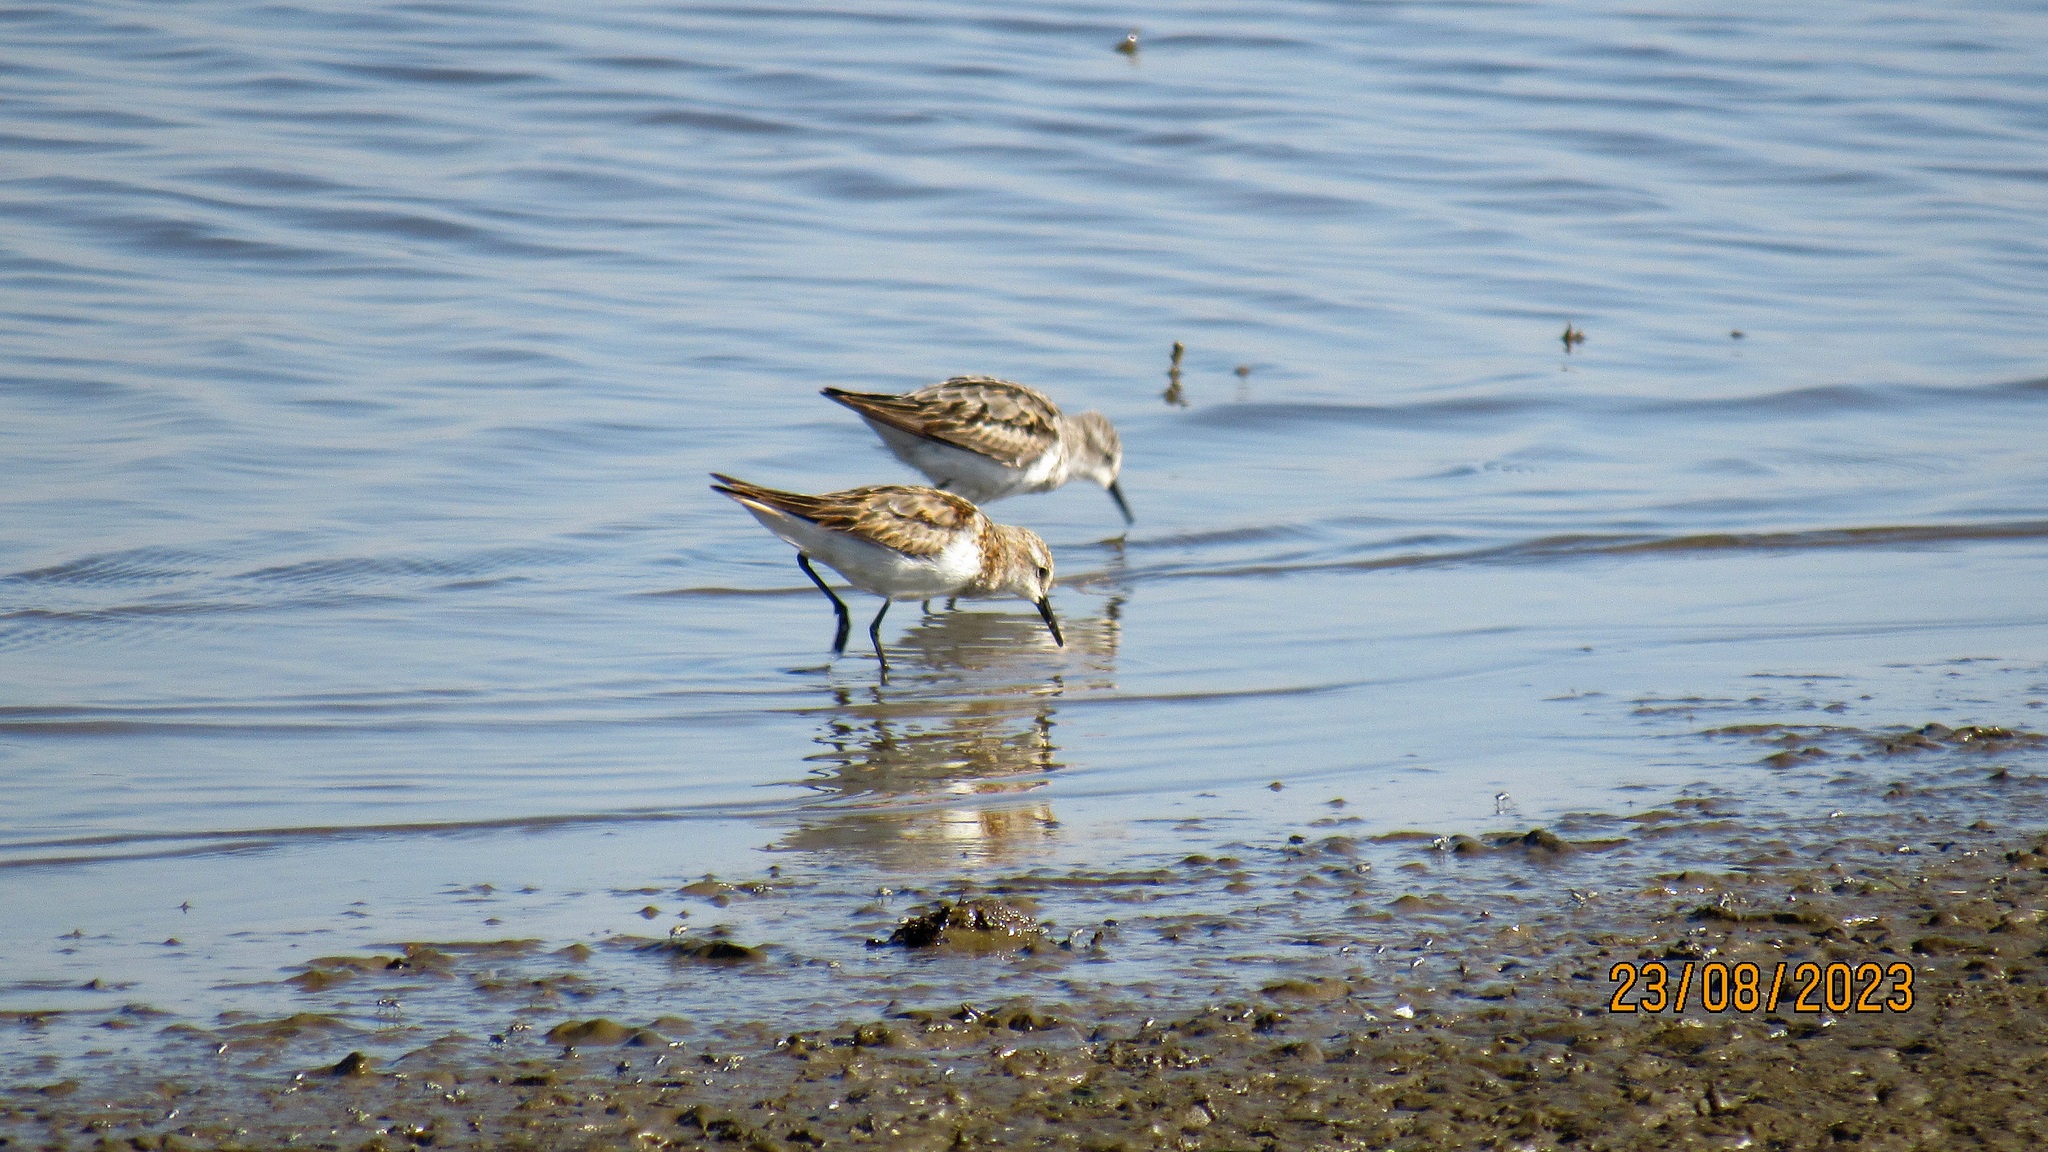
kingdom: Animalia
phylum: Chordata
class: Aves
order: Charadriiformes
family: Scolopacidae
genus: Calidris
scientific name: Calidris minuta
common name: Little stint
